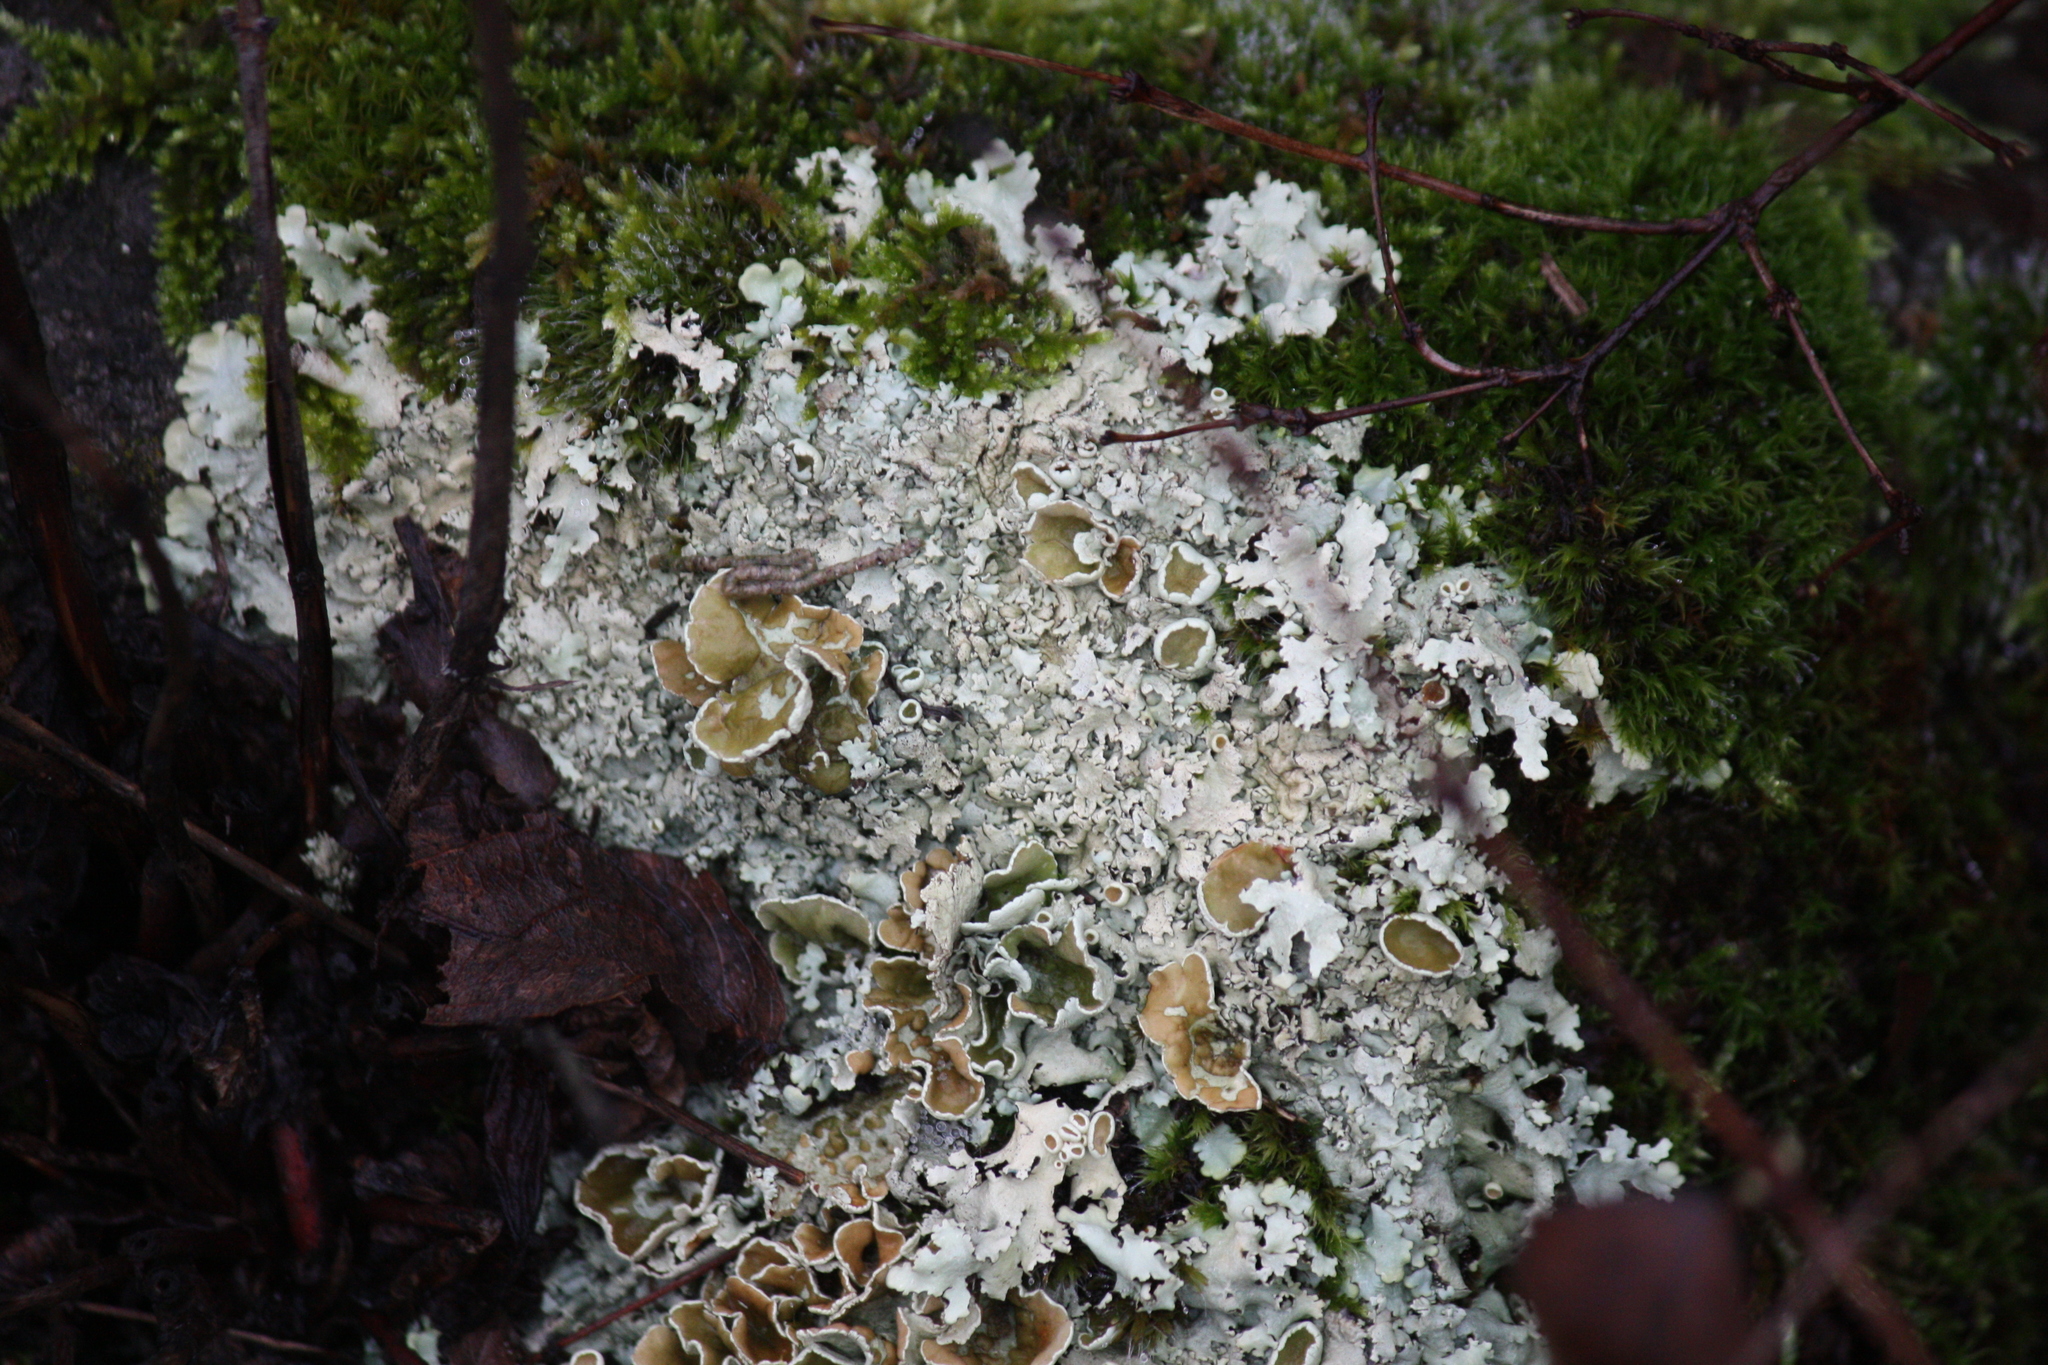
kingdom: Fungi
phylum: Ascomycota
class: Lecanoromycetes
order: Lecanorales
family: Parmeliaceae
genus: Xanthoparmelia
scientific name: Xanthoparmelia cumberlandia
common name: Cumberland rock shield
